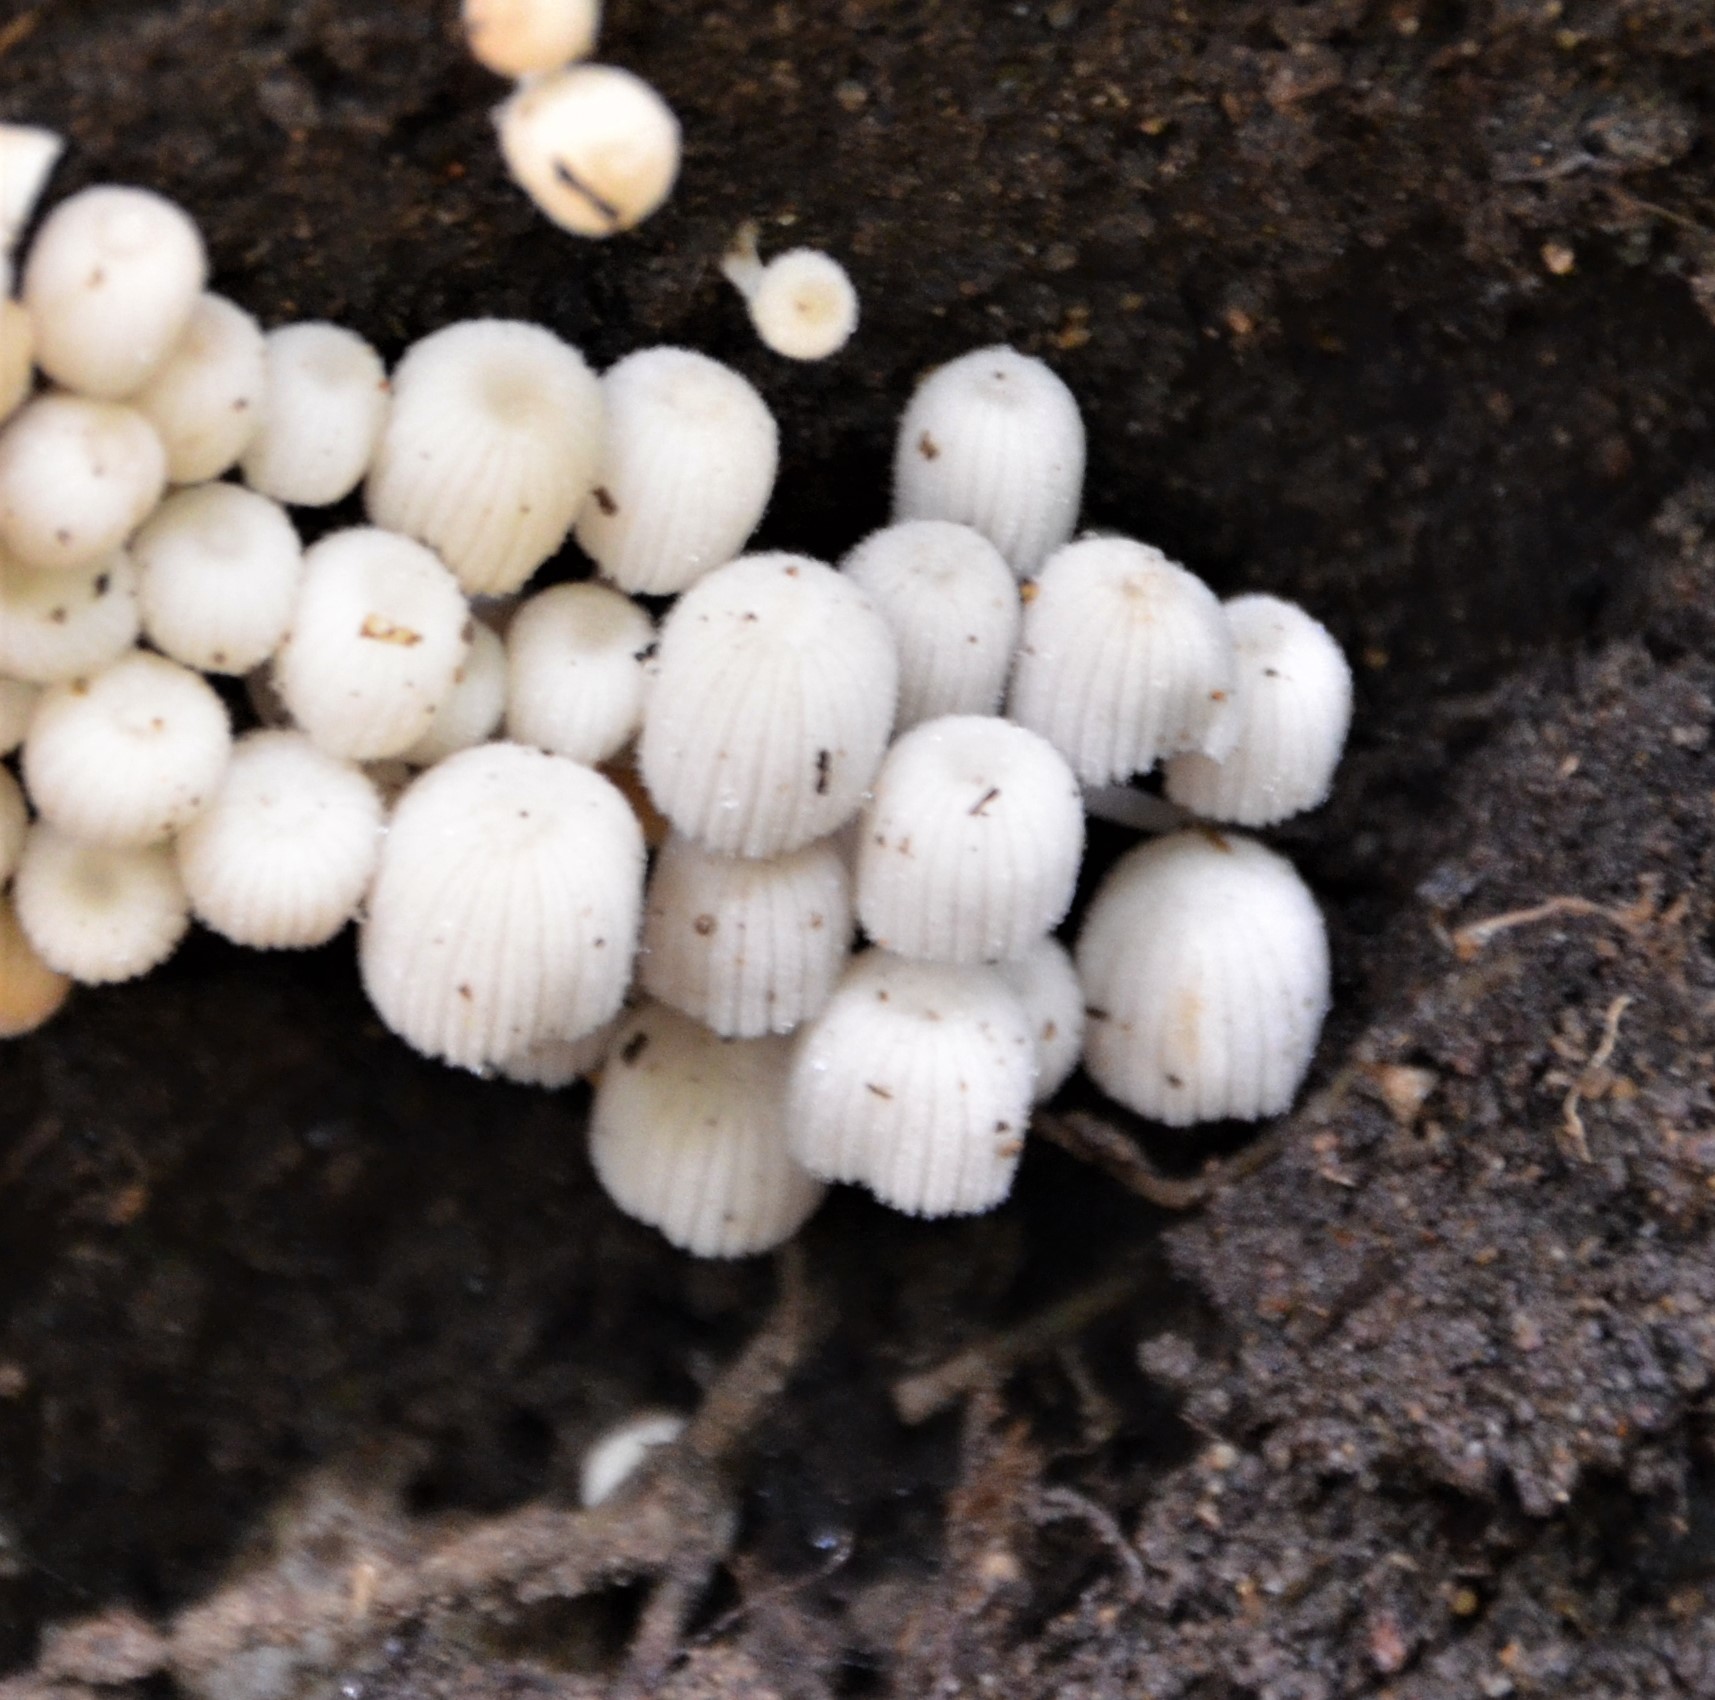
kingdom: Fungi
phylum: Basidiomycota
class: Agaricomycetes
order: Agaricales
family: Psathyrellaceae
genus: Coprinellus
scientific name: Coprinellus disseminatus
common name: Fairies' bonnets
